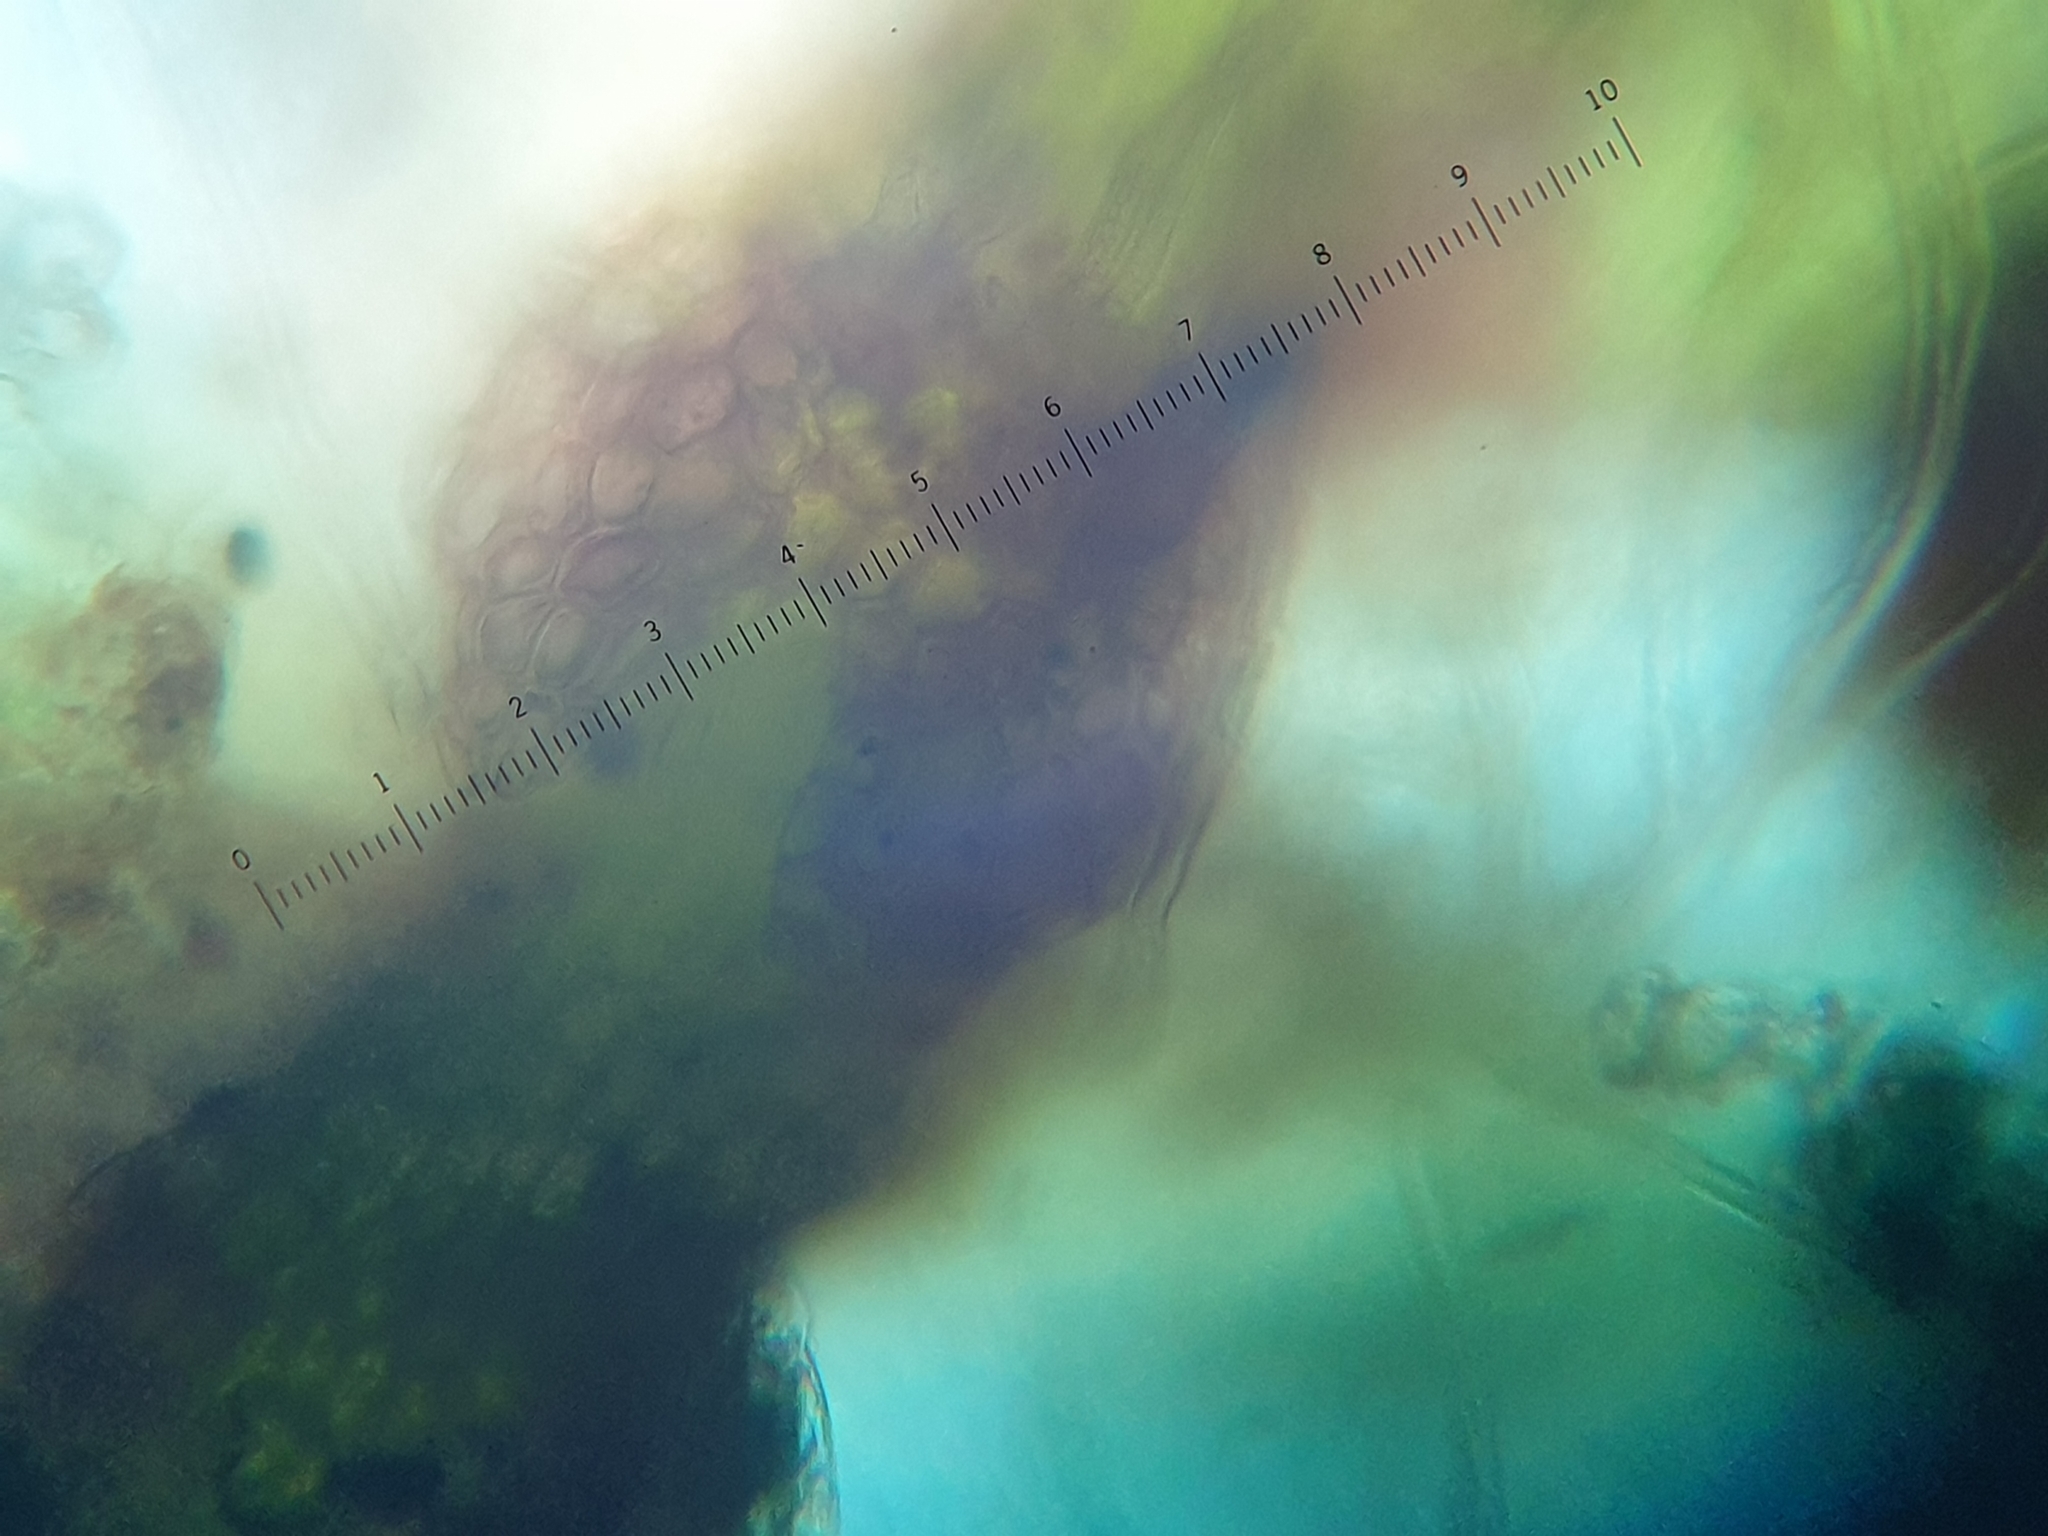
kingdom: Plantae
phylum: Marchantiophyta
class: Jungermanniopsida
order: Jungermanniales
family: Calypogeiaceae
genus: Calypogeia
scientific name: Calypogeia neogaea
